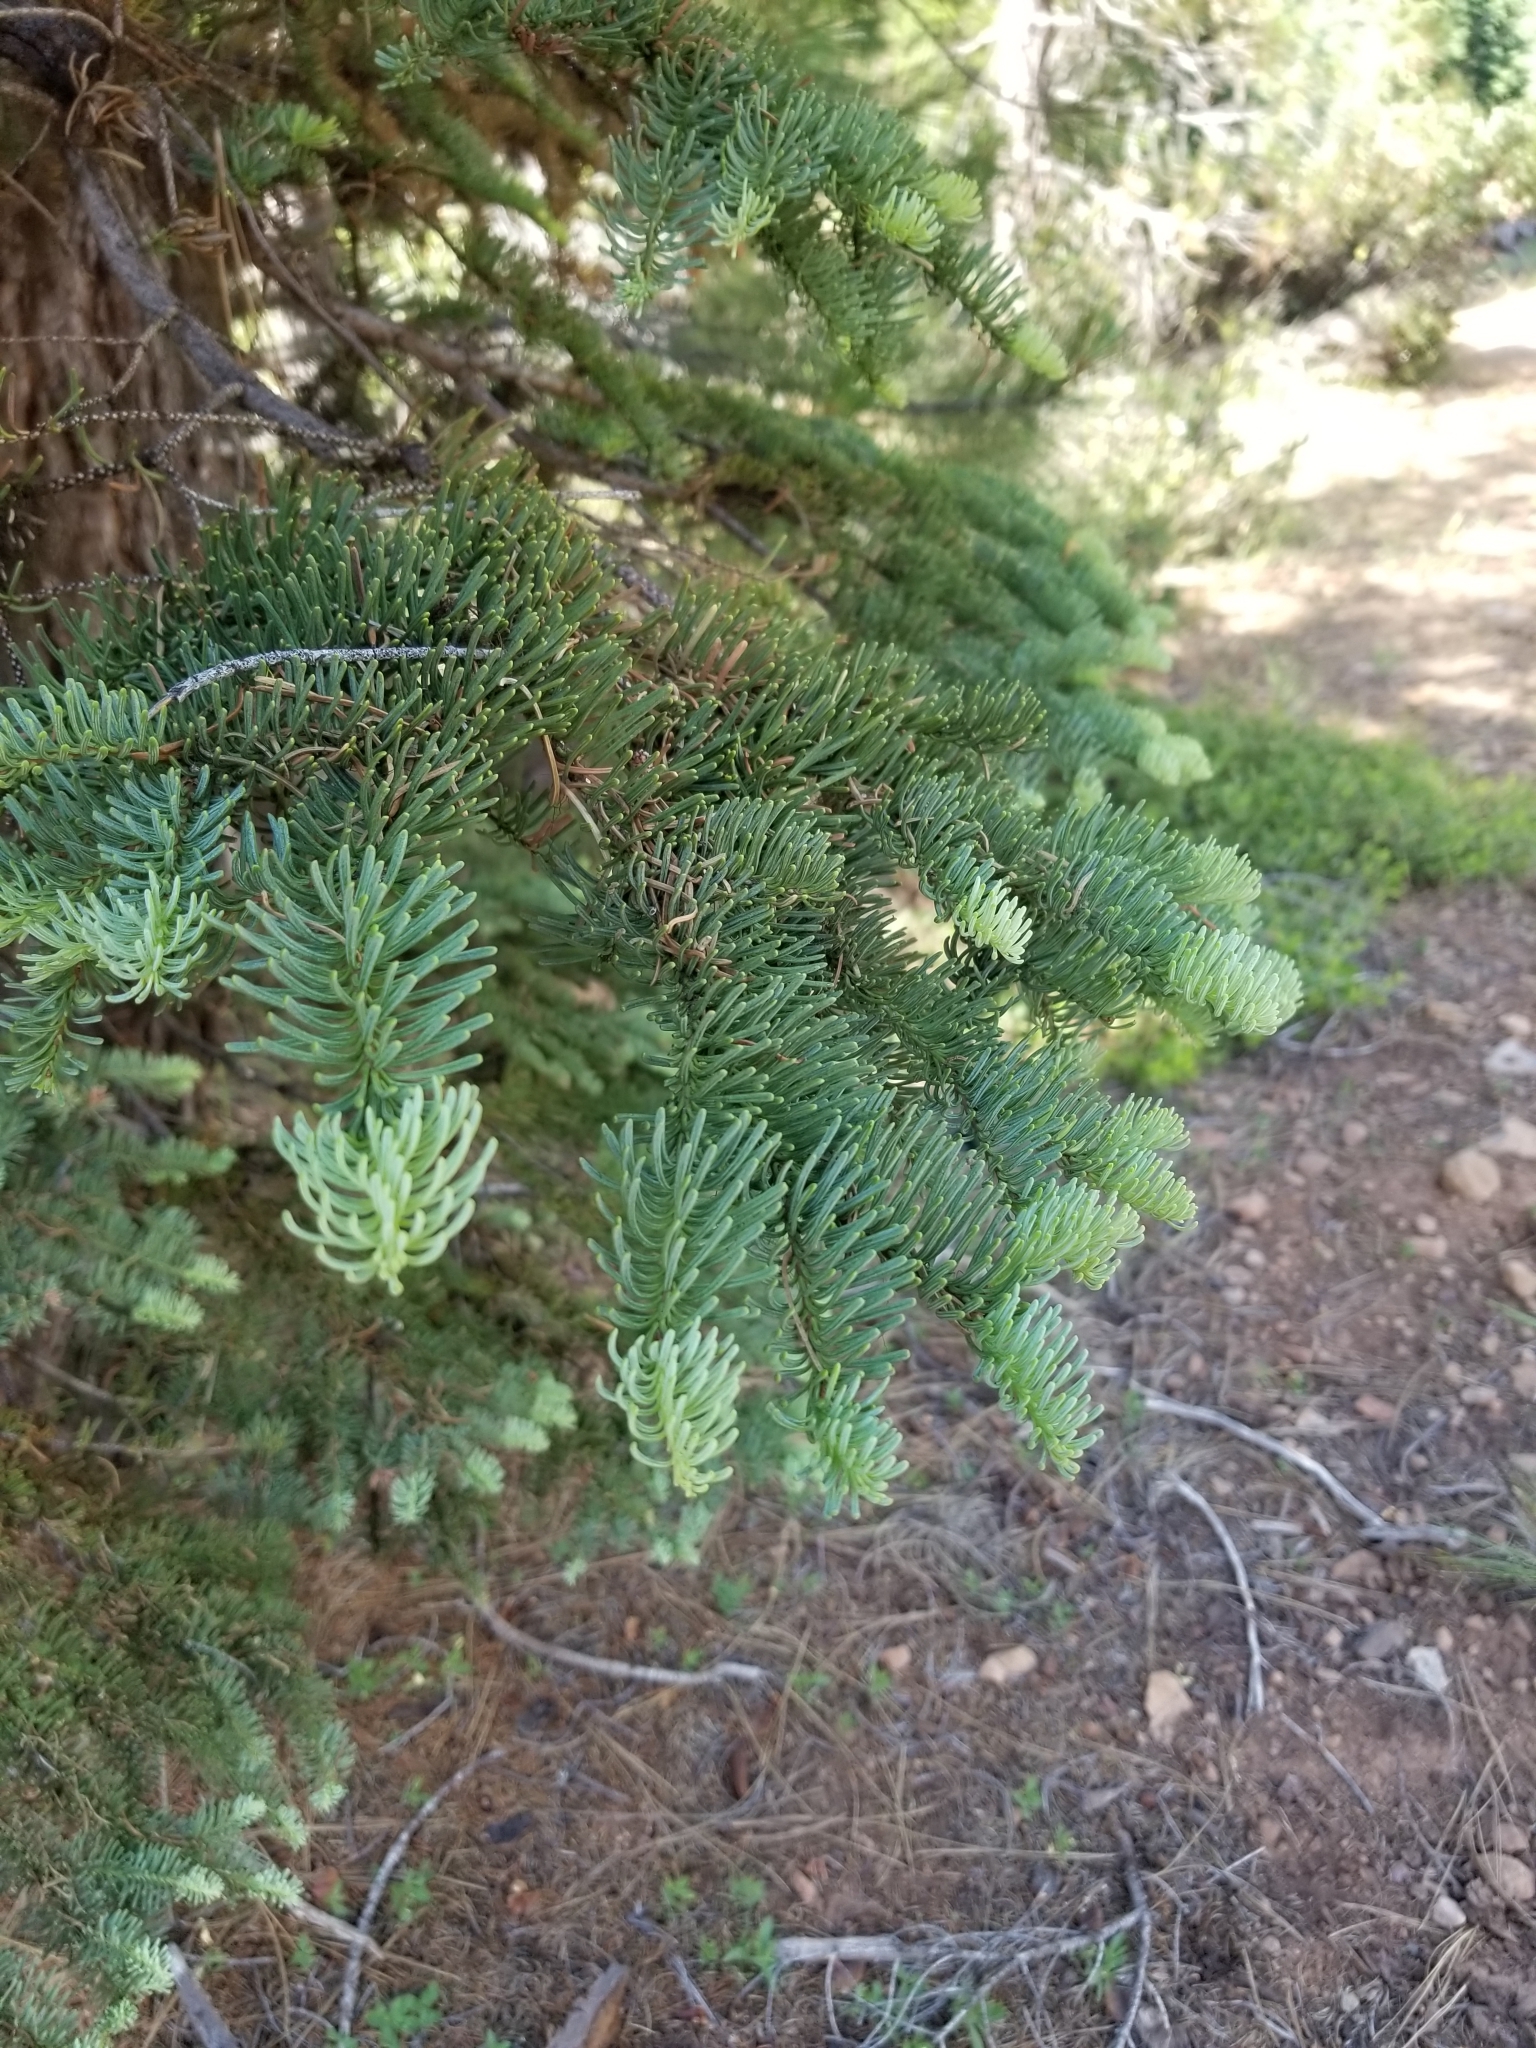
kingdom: Plantae
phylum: Tracheophyta
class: Pinopsida
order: Pinales
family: Pinaceae
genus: Abies
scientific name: Abies magnifica bis
